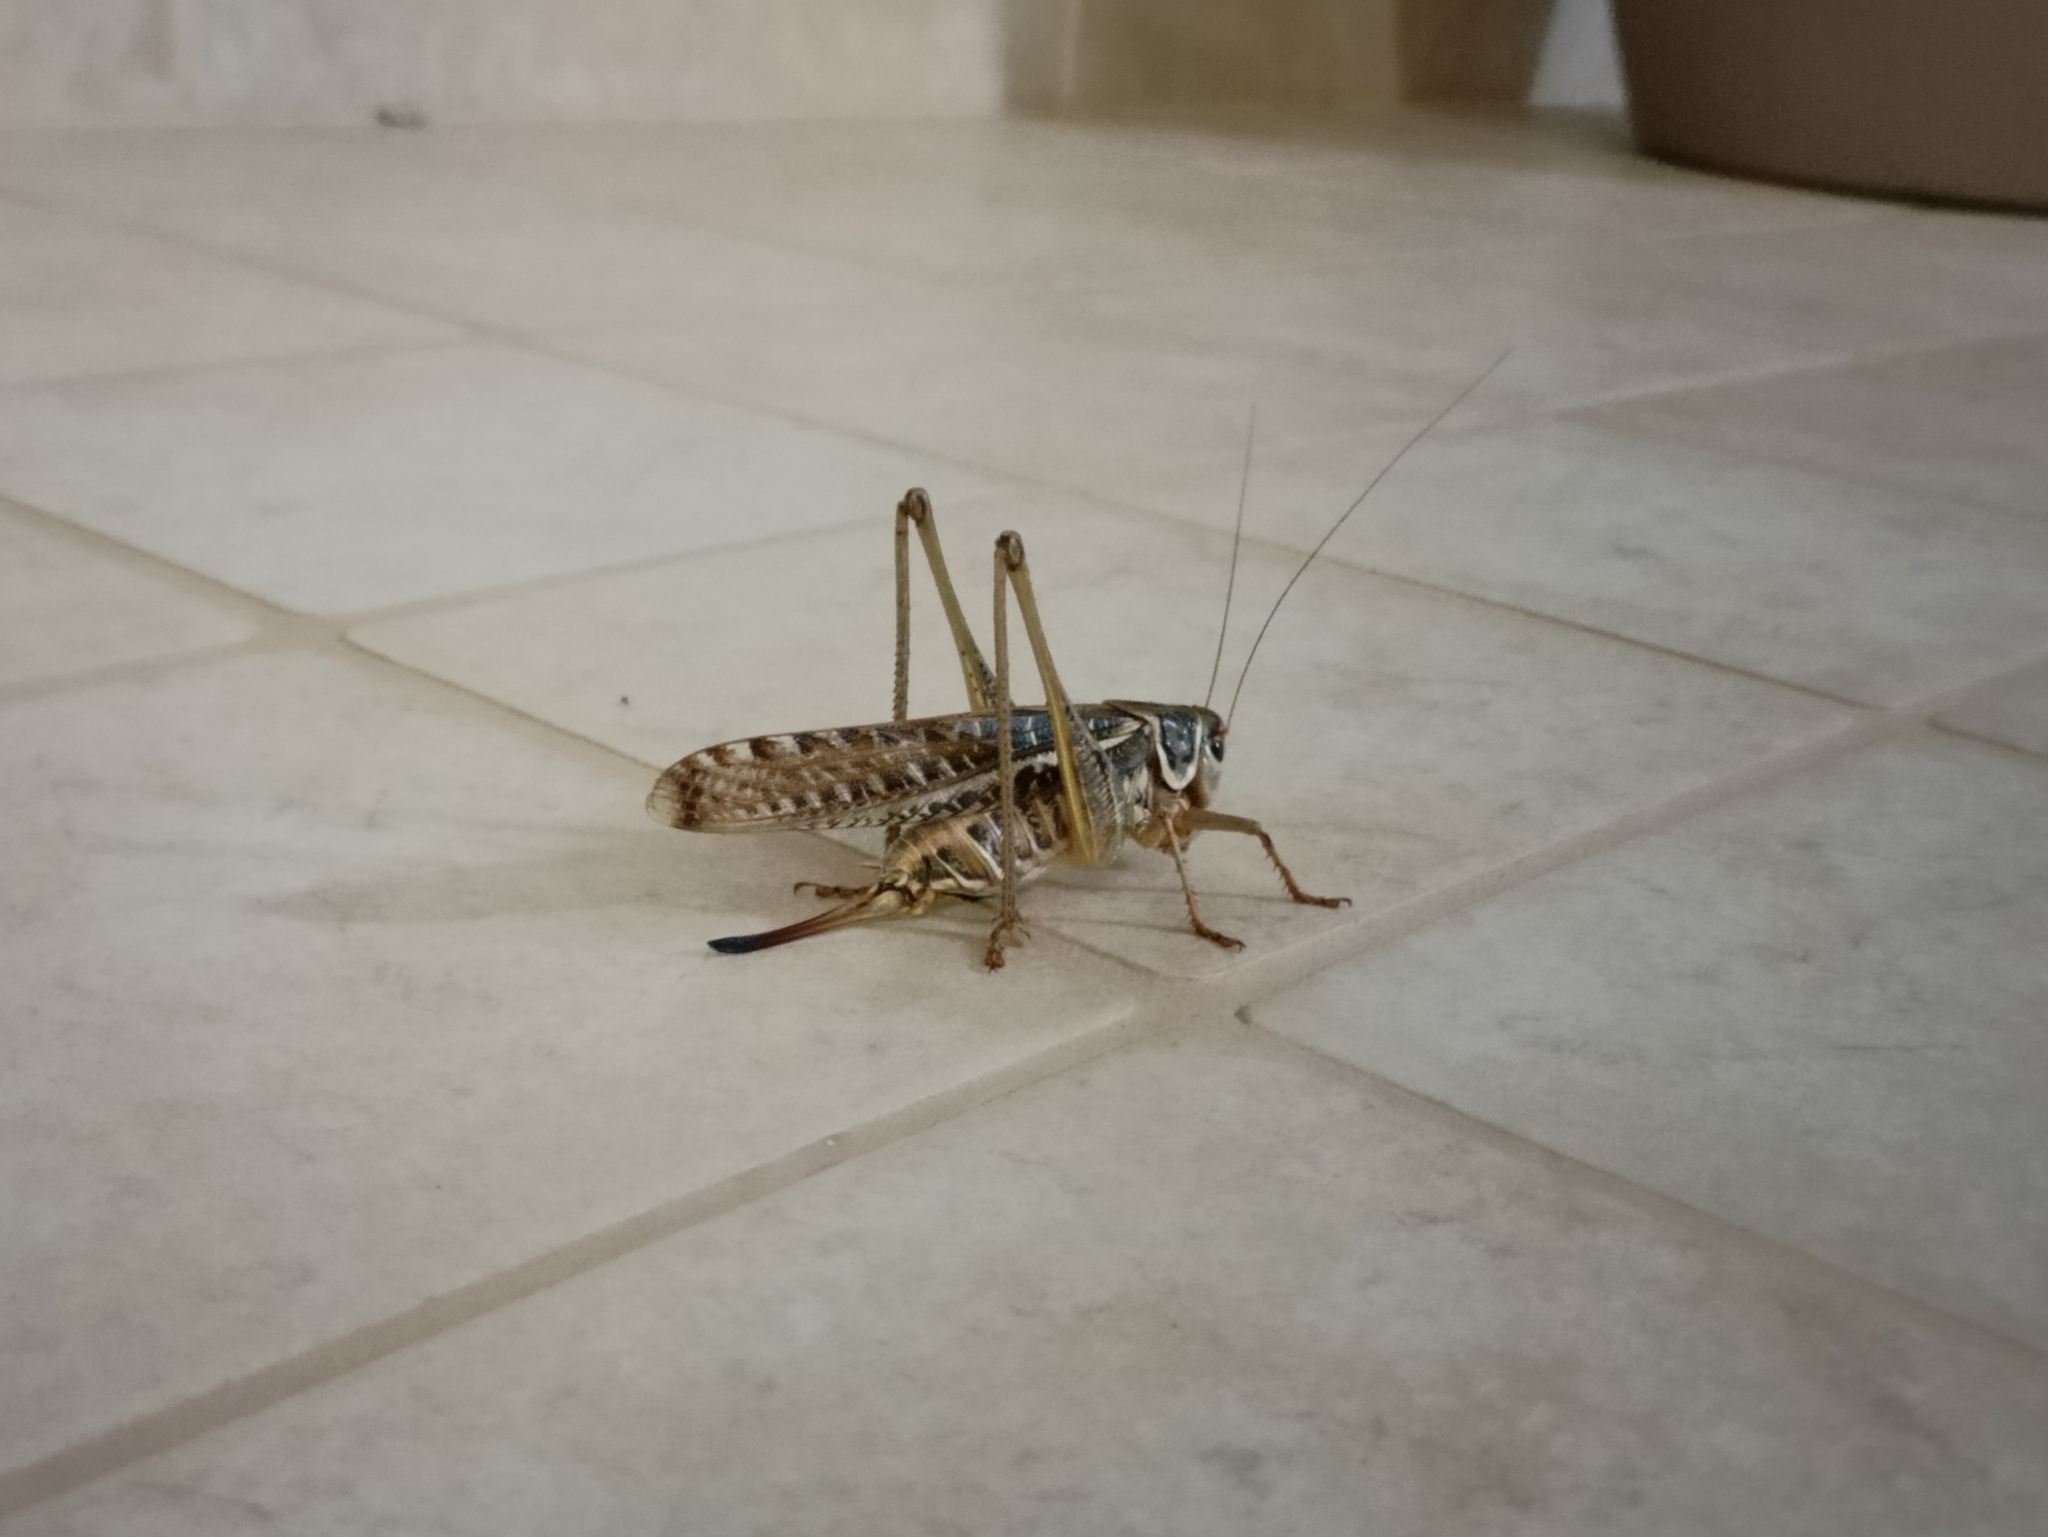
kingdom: Animalia
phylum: Arthropoda
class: Insecta
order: Orthoptera
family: Tettigoniidae
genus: Decticus
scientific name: Decticus albifrons
